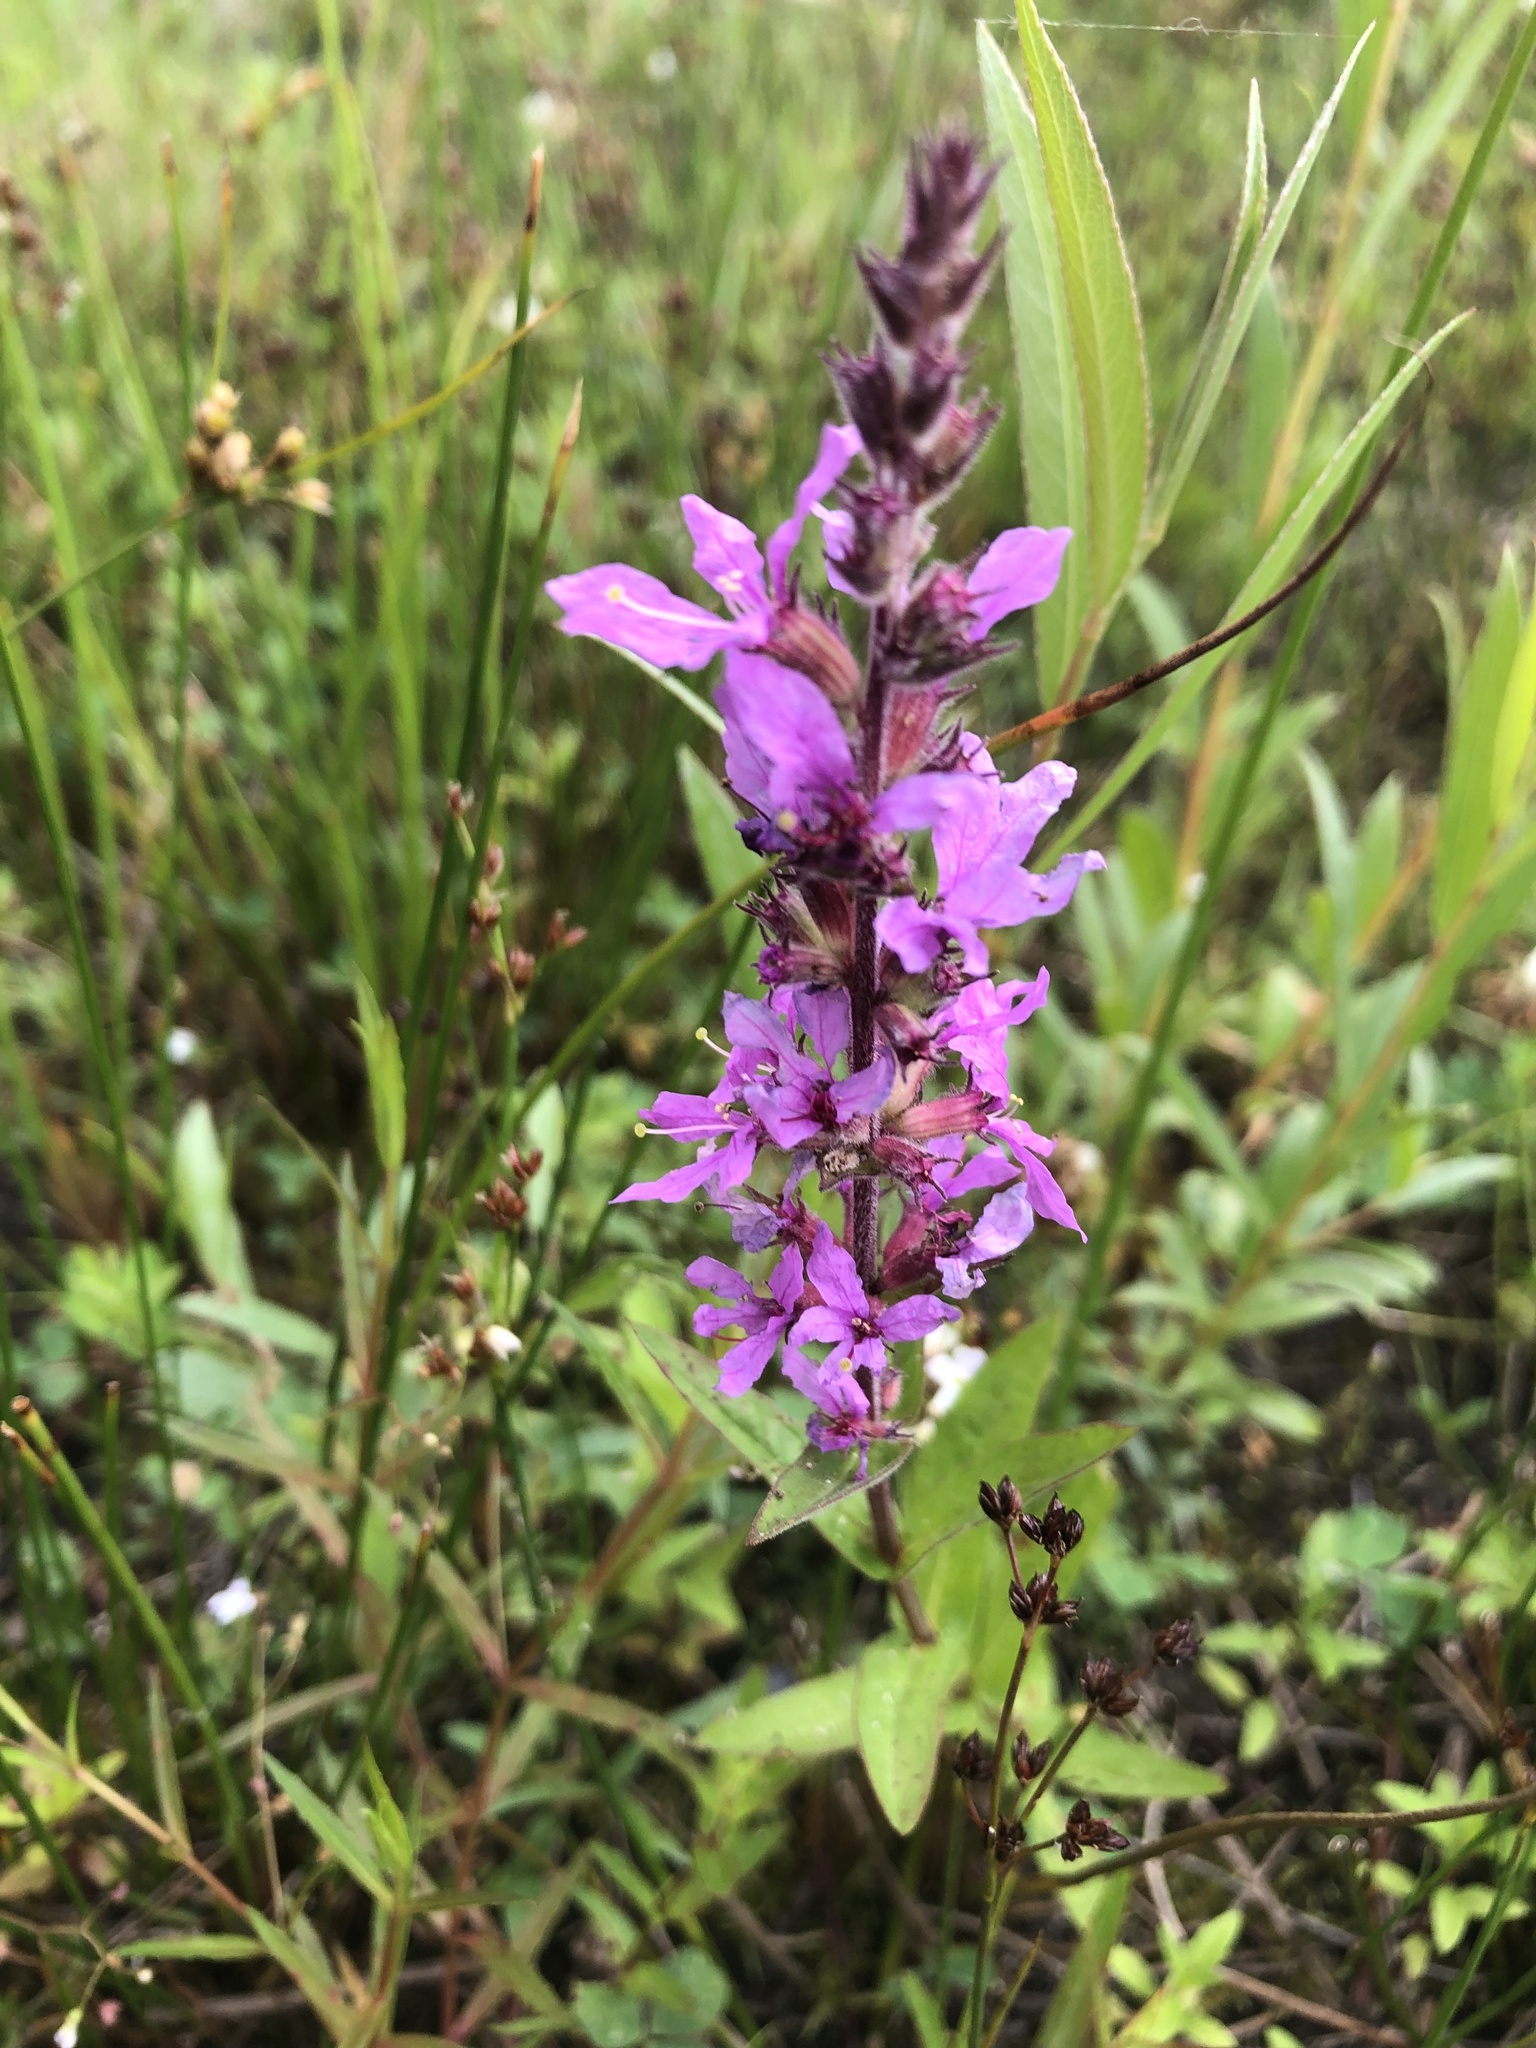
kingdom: Plantae
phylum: Tracheophyta
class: Magnoliopsida
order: Myrtales
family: Lythraceae
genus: Lythrum
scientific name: Lythrum salicaria
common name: Purple loosestrife
